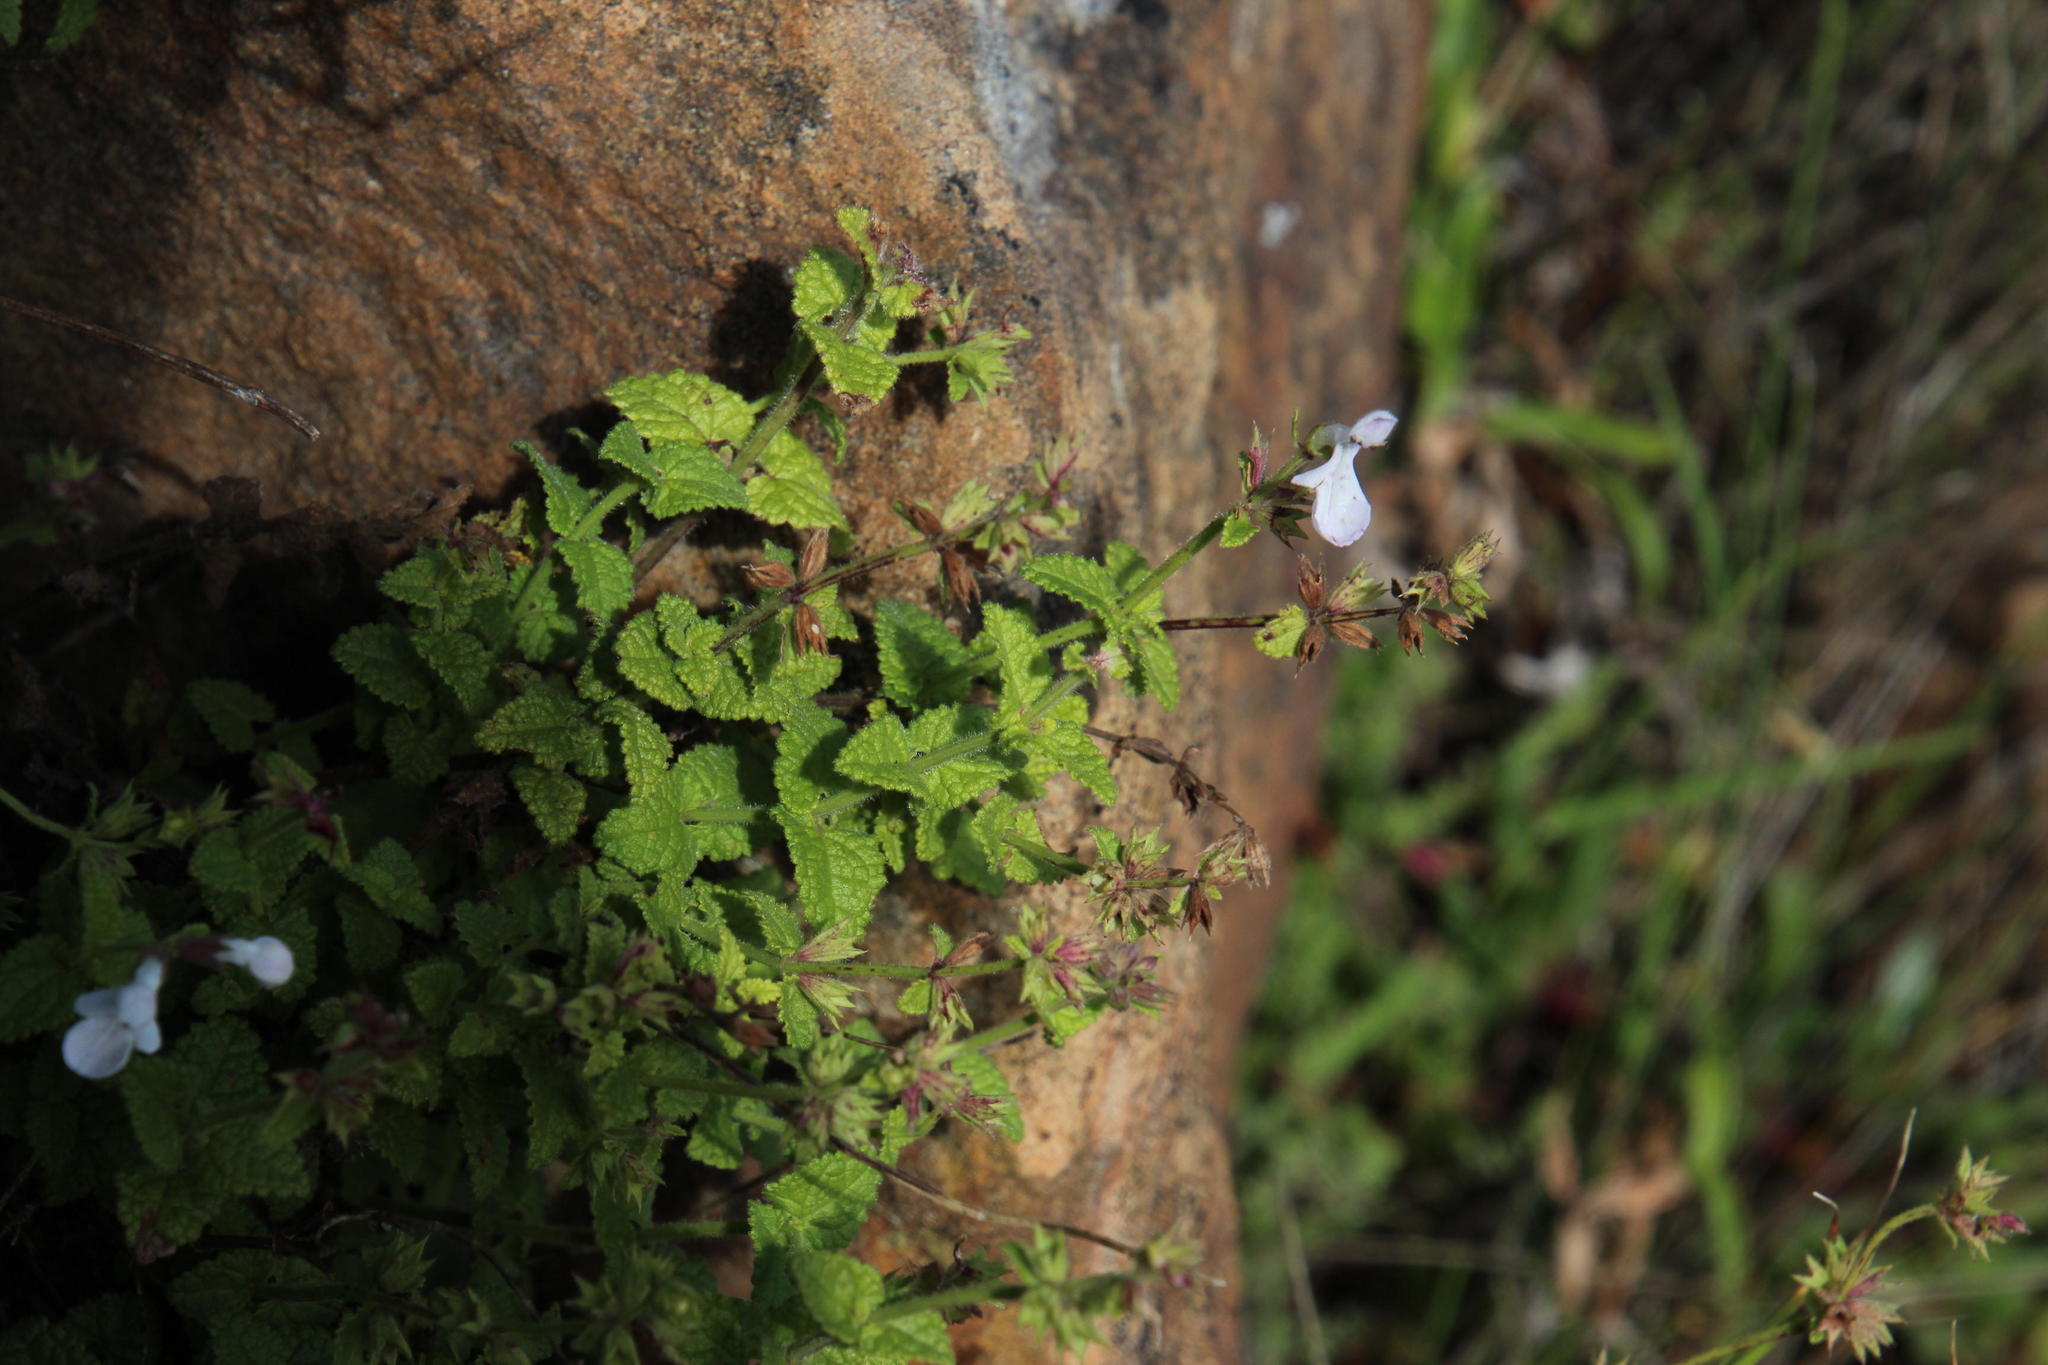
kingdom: Plantae
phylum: Tracheophyta
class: Magnoliopsida
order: Lamiales
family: Lamiaceae
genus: Stachys
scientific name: Stachys aethiopica
